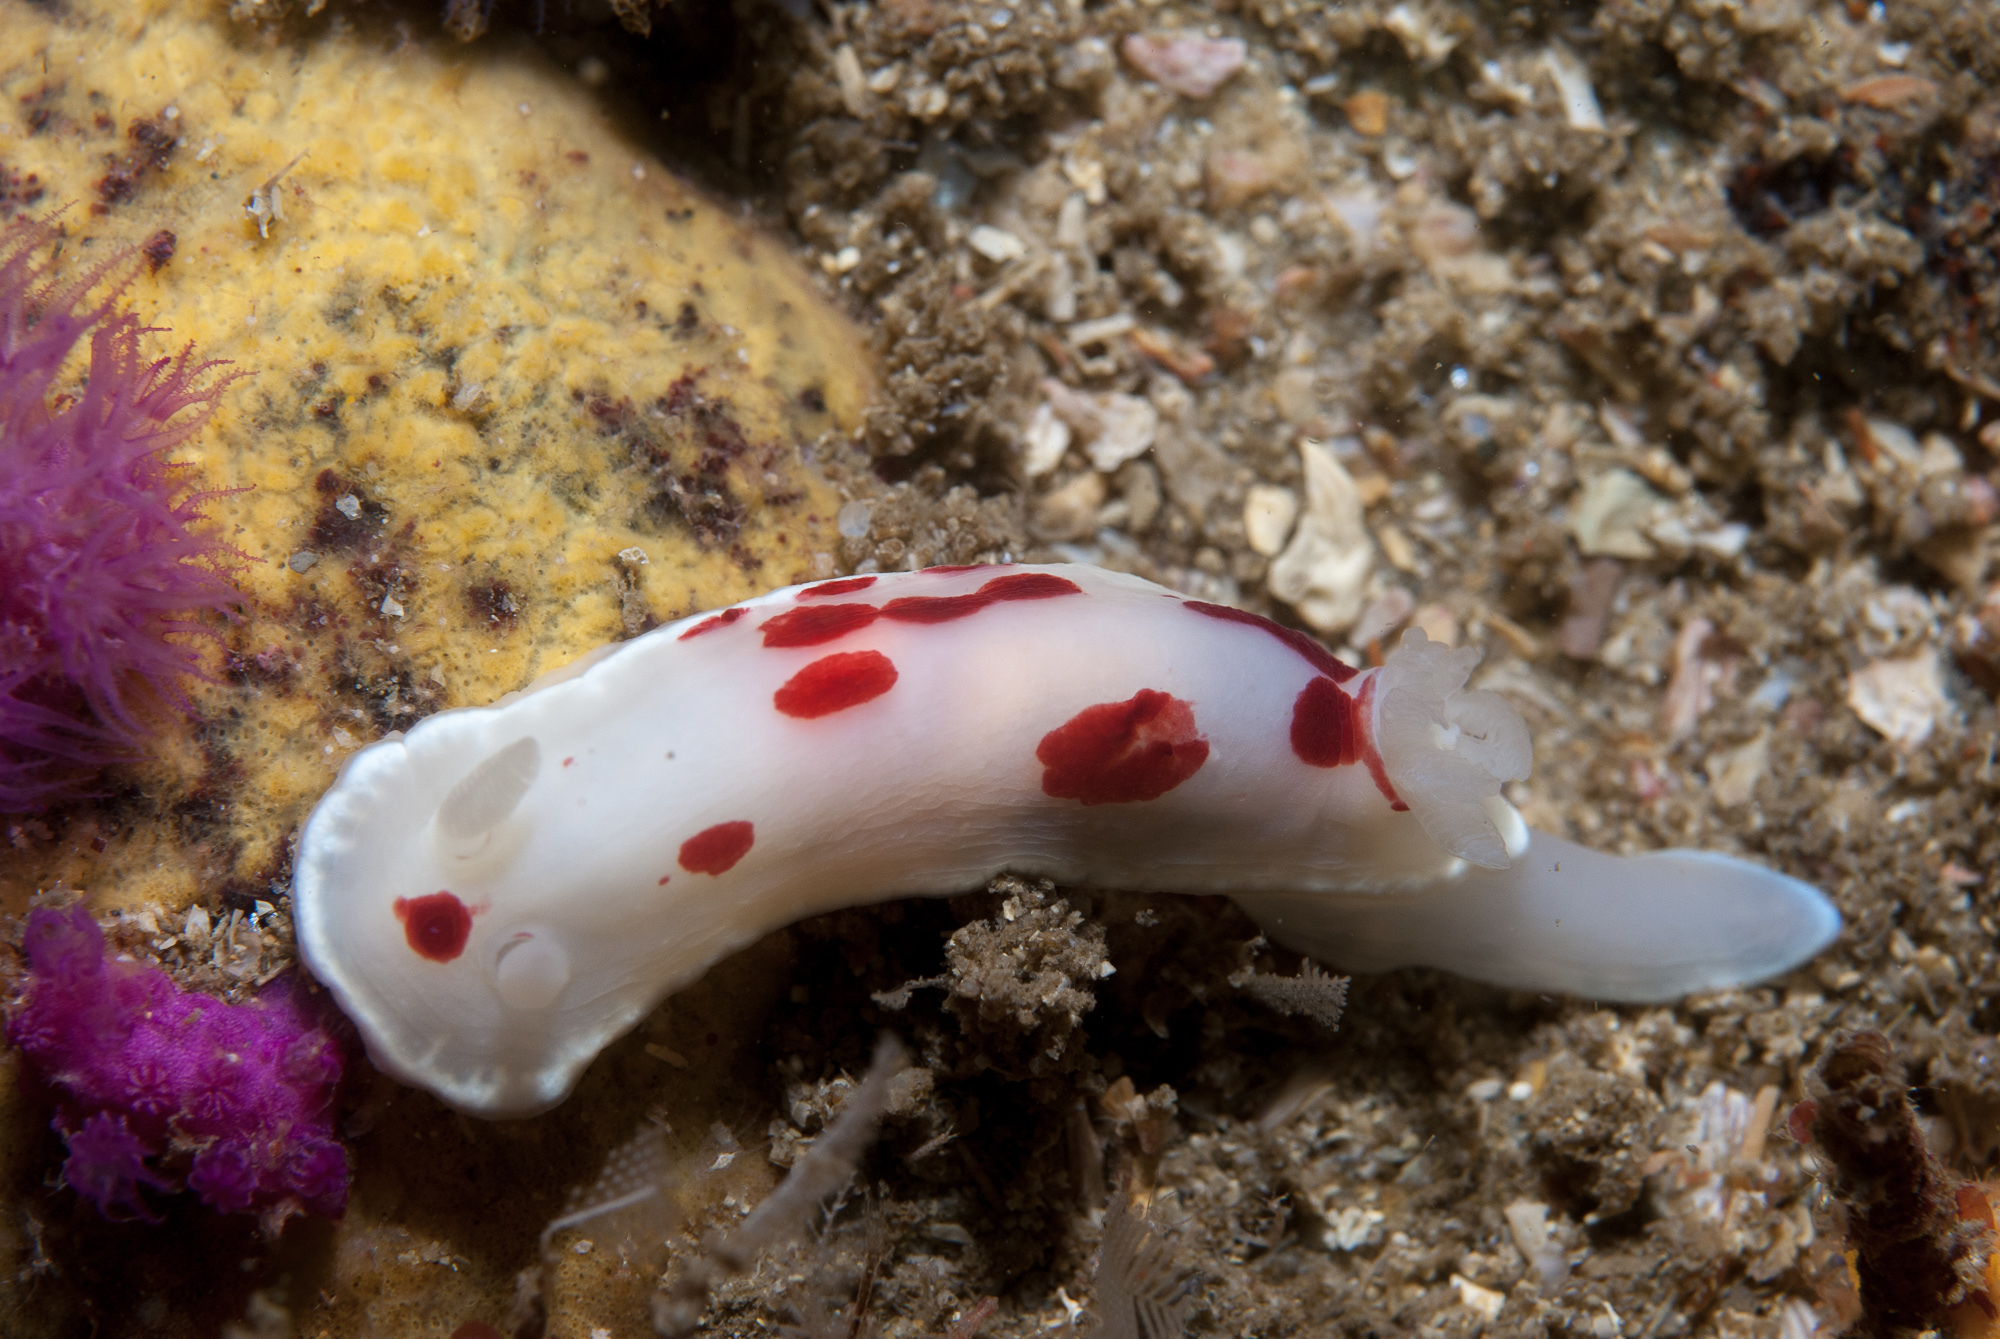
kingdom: Animalia
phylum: Mollusca
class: Gastropoda
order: Nudibranchia
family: Chromodorididae
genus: Goniobranchus
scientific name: Goniobranchus heatherae
